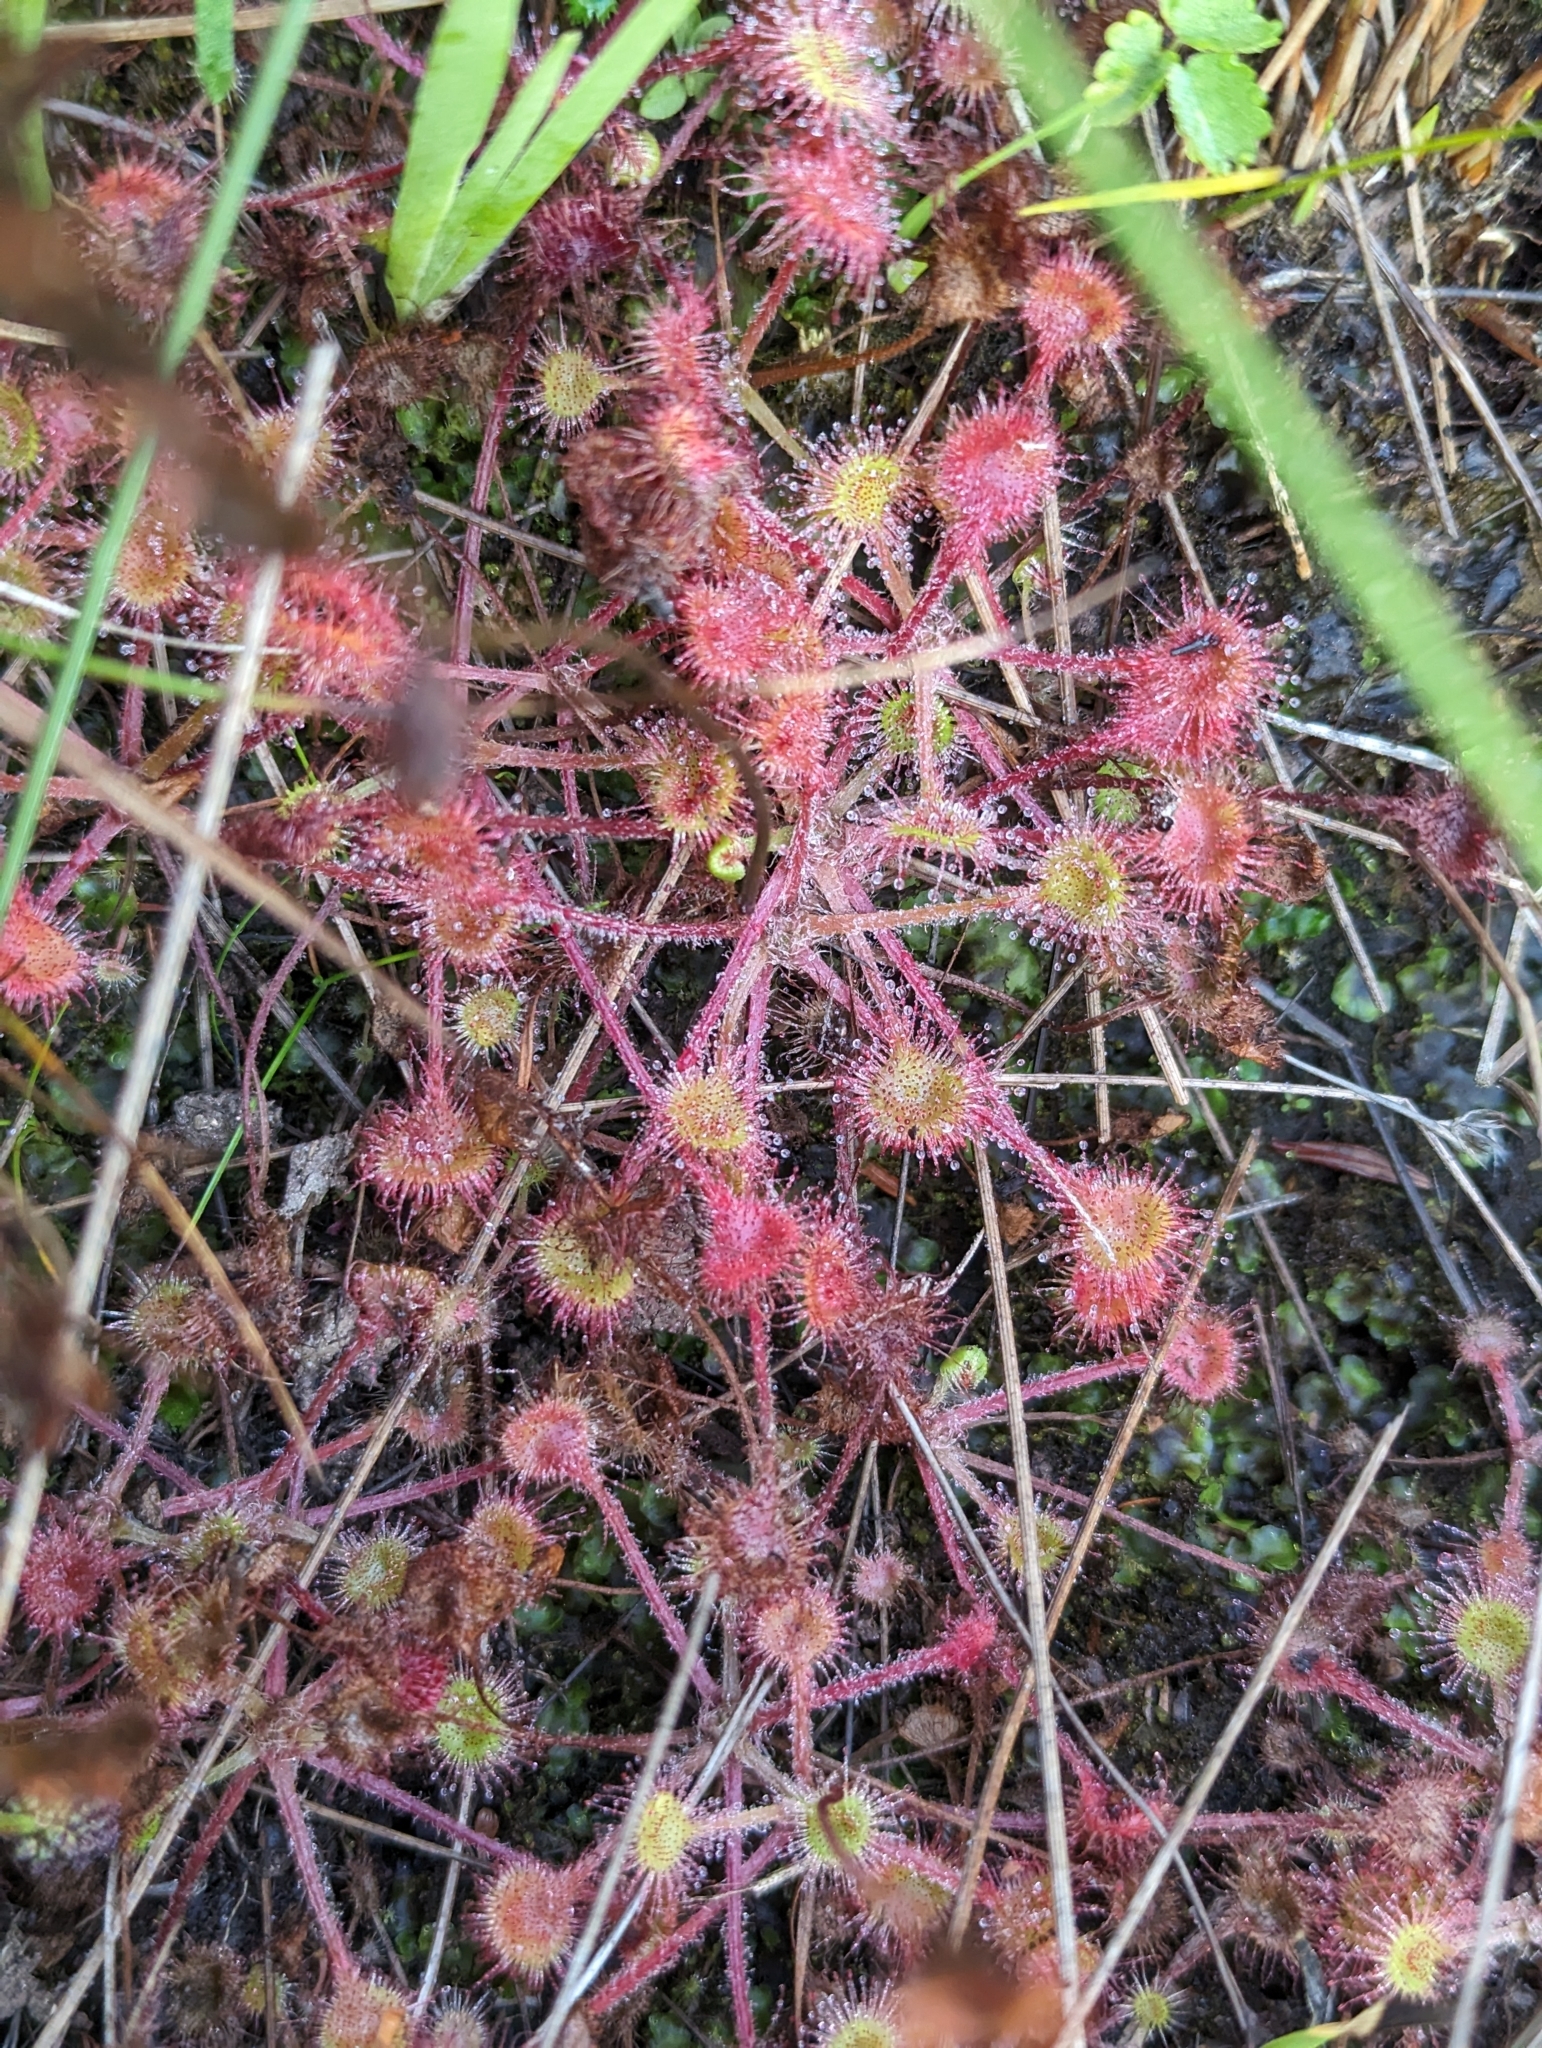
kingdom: Plantae
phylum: Tracheophyta
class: Magnoliopsida
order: Caryophyllales
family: Droseraceae
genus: Drosera
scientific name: Drosera rotundifolia
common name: Round-leaved sundew
